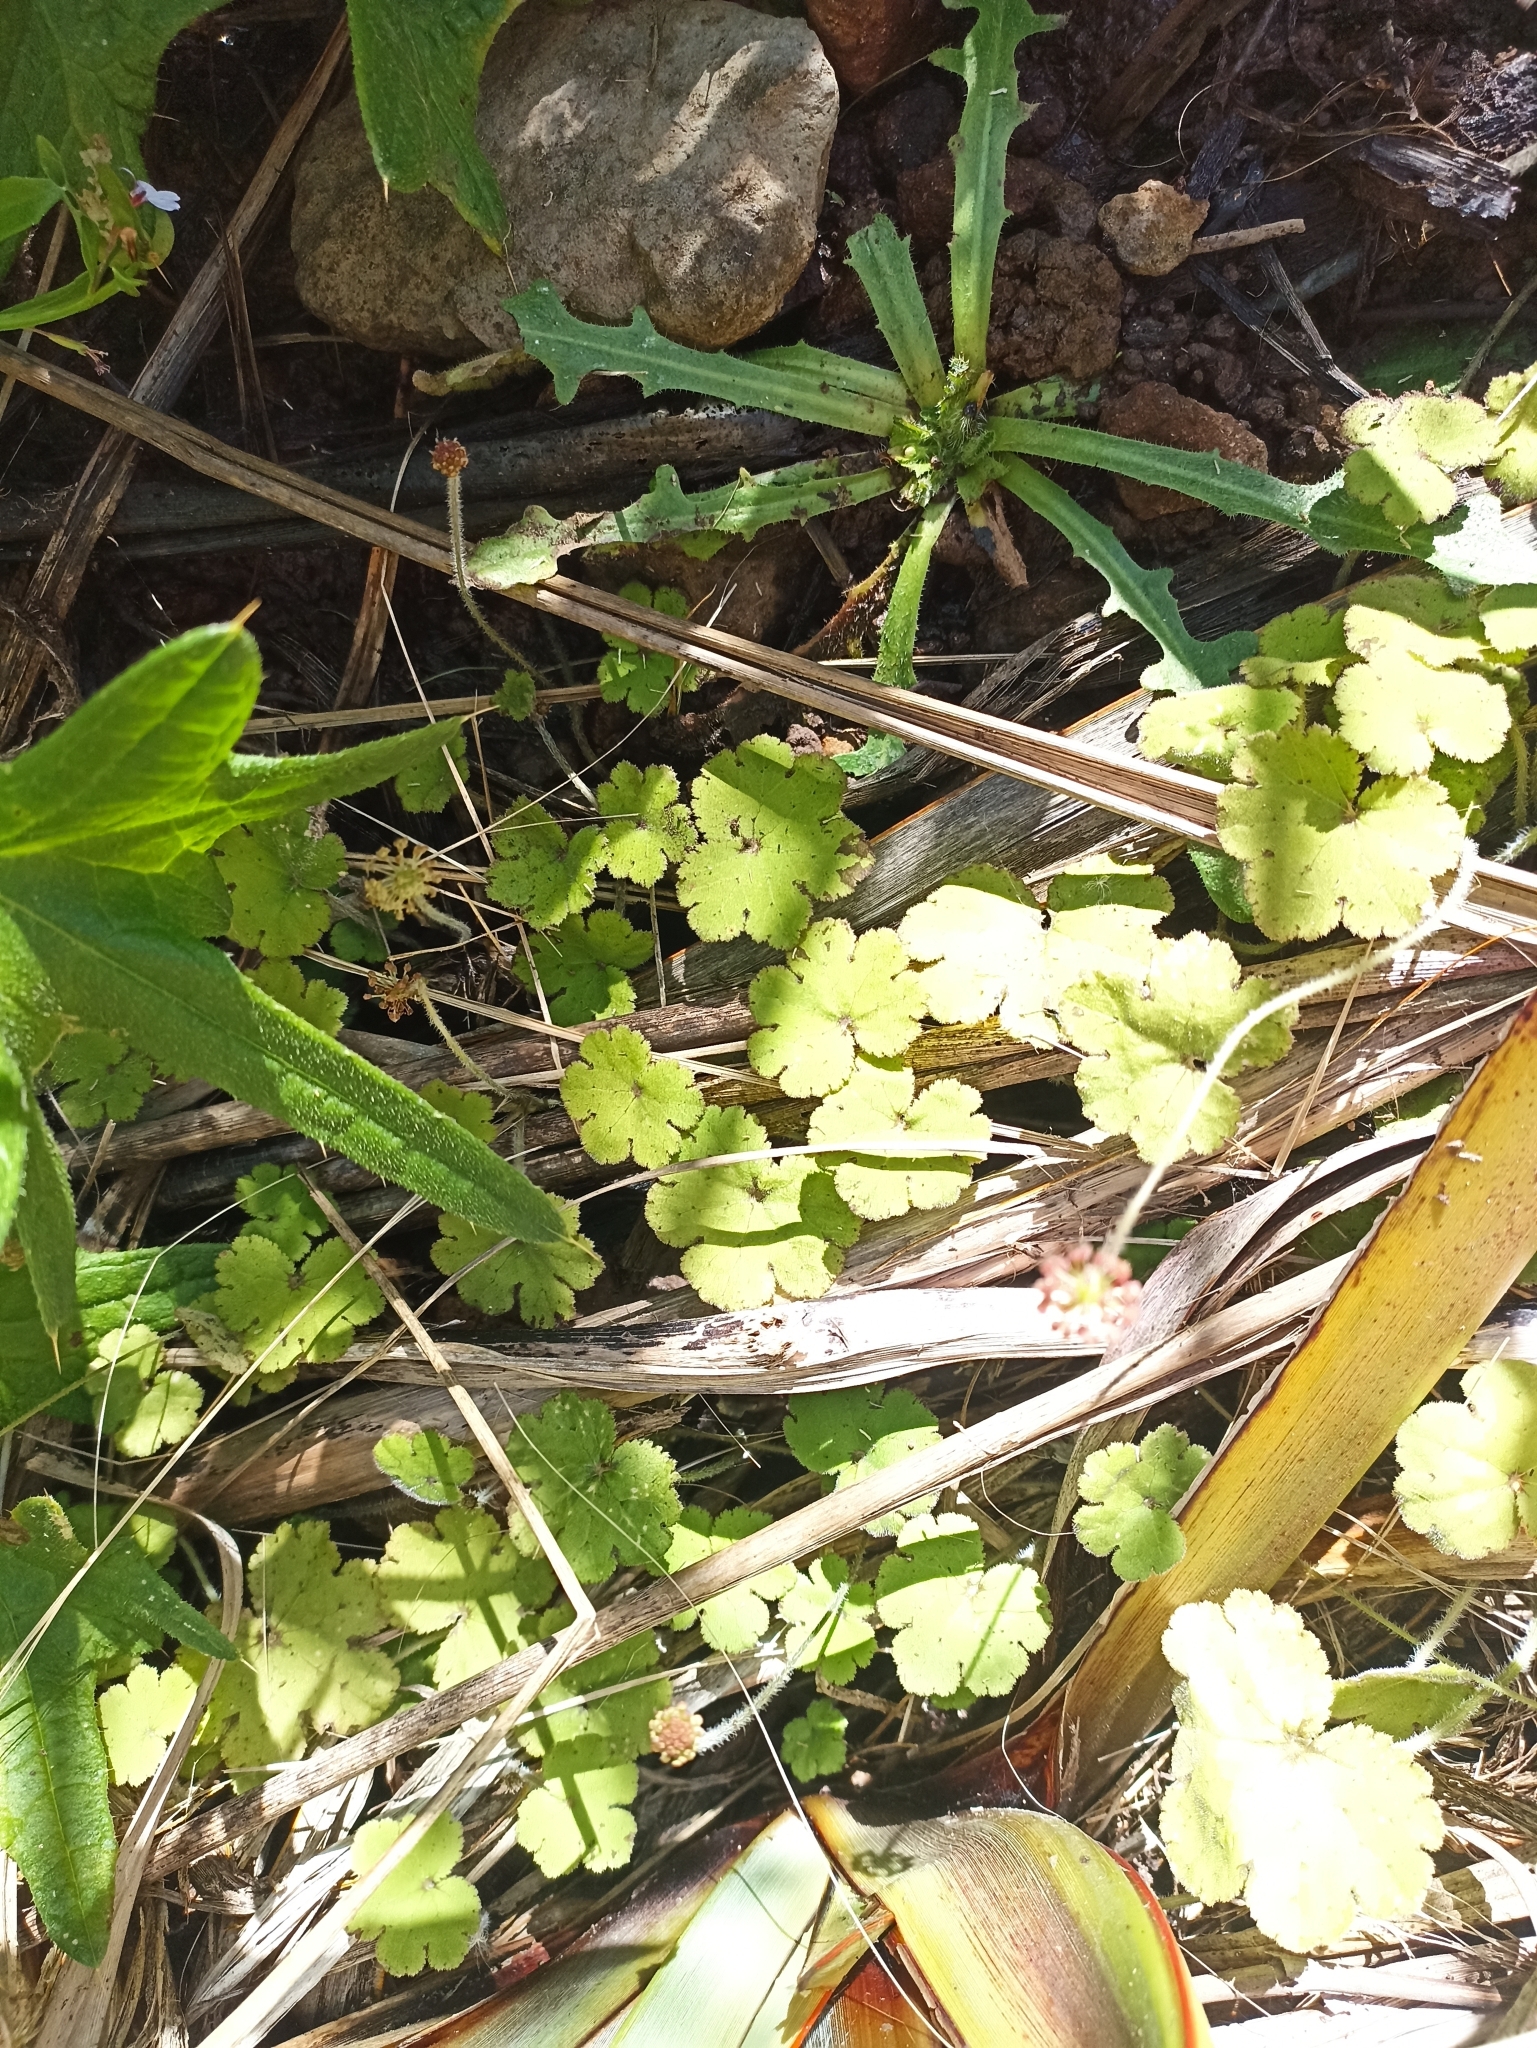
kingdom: Plantae
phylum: Tracheophyta
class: Magnoliopsida
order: Apiales
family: Araliaceae
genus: Hydrocotyle
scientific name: Hydrocotyle elongata
